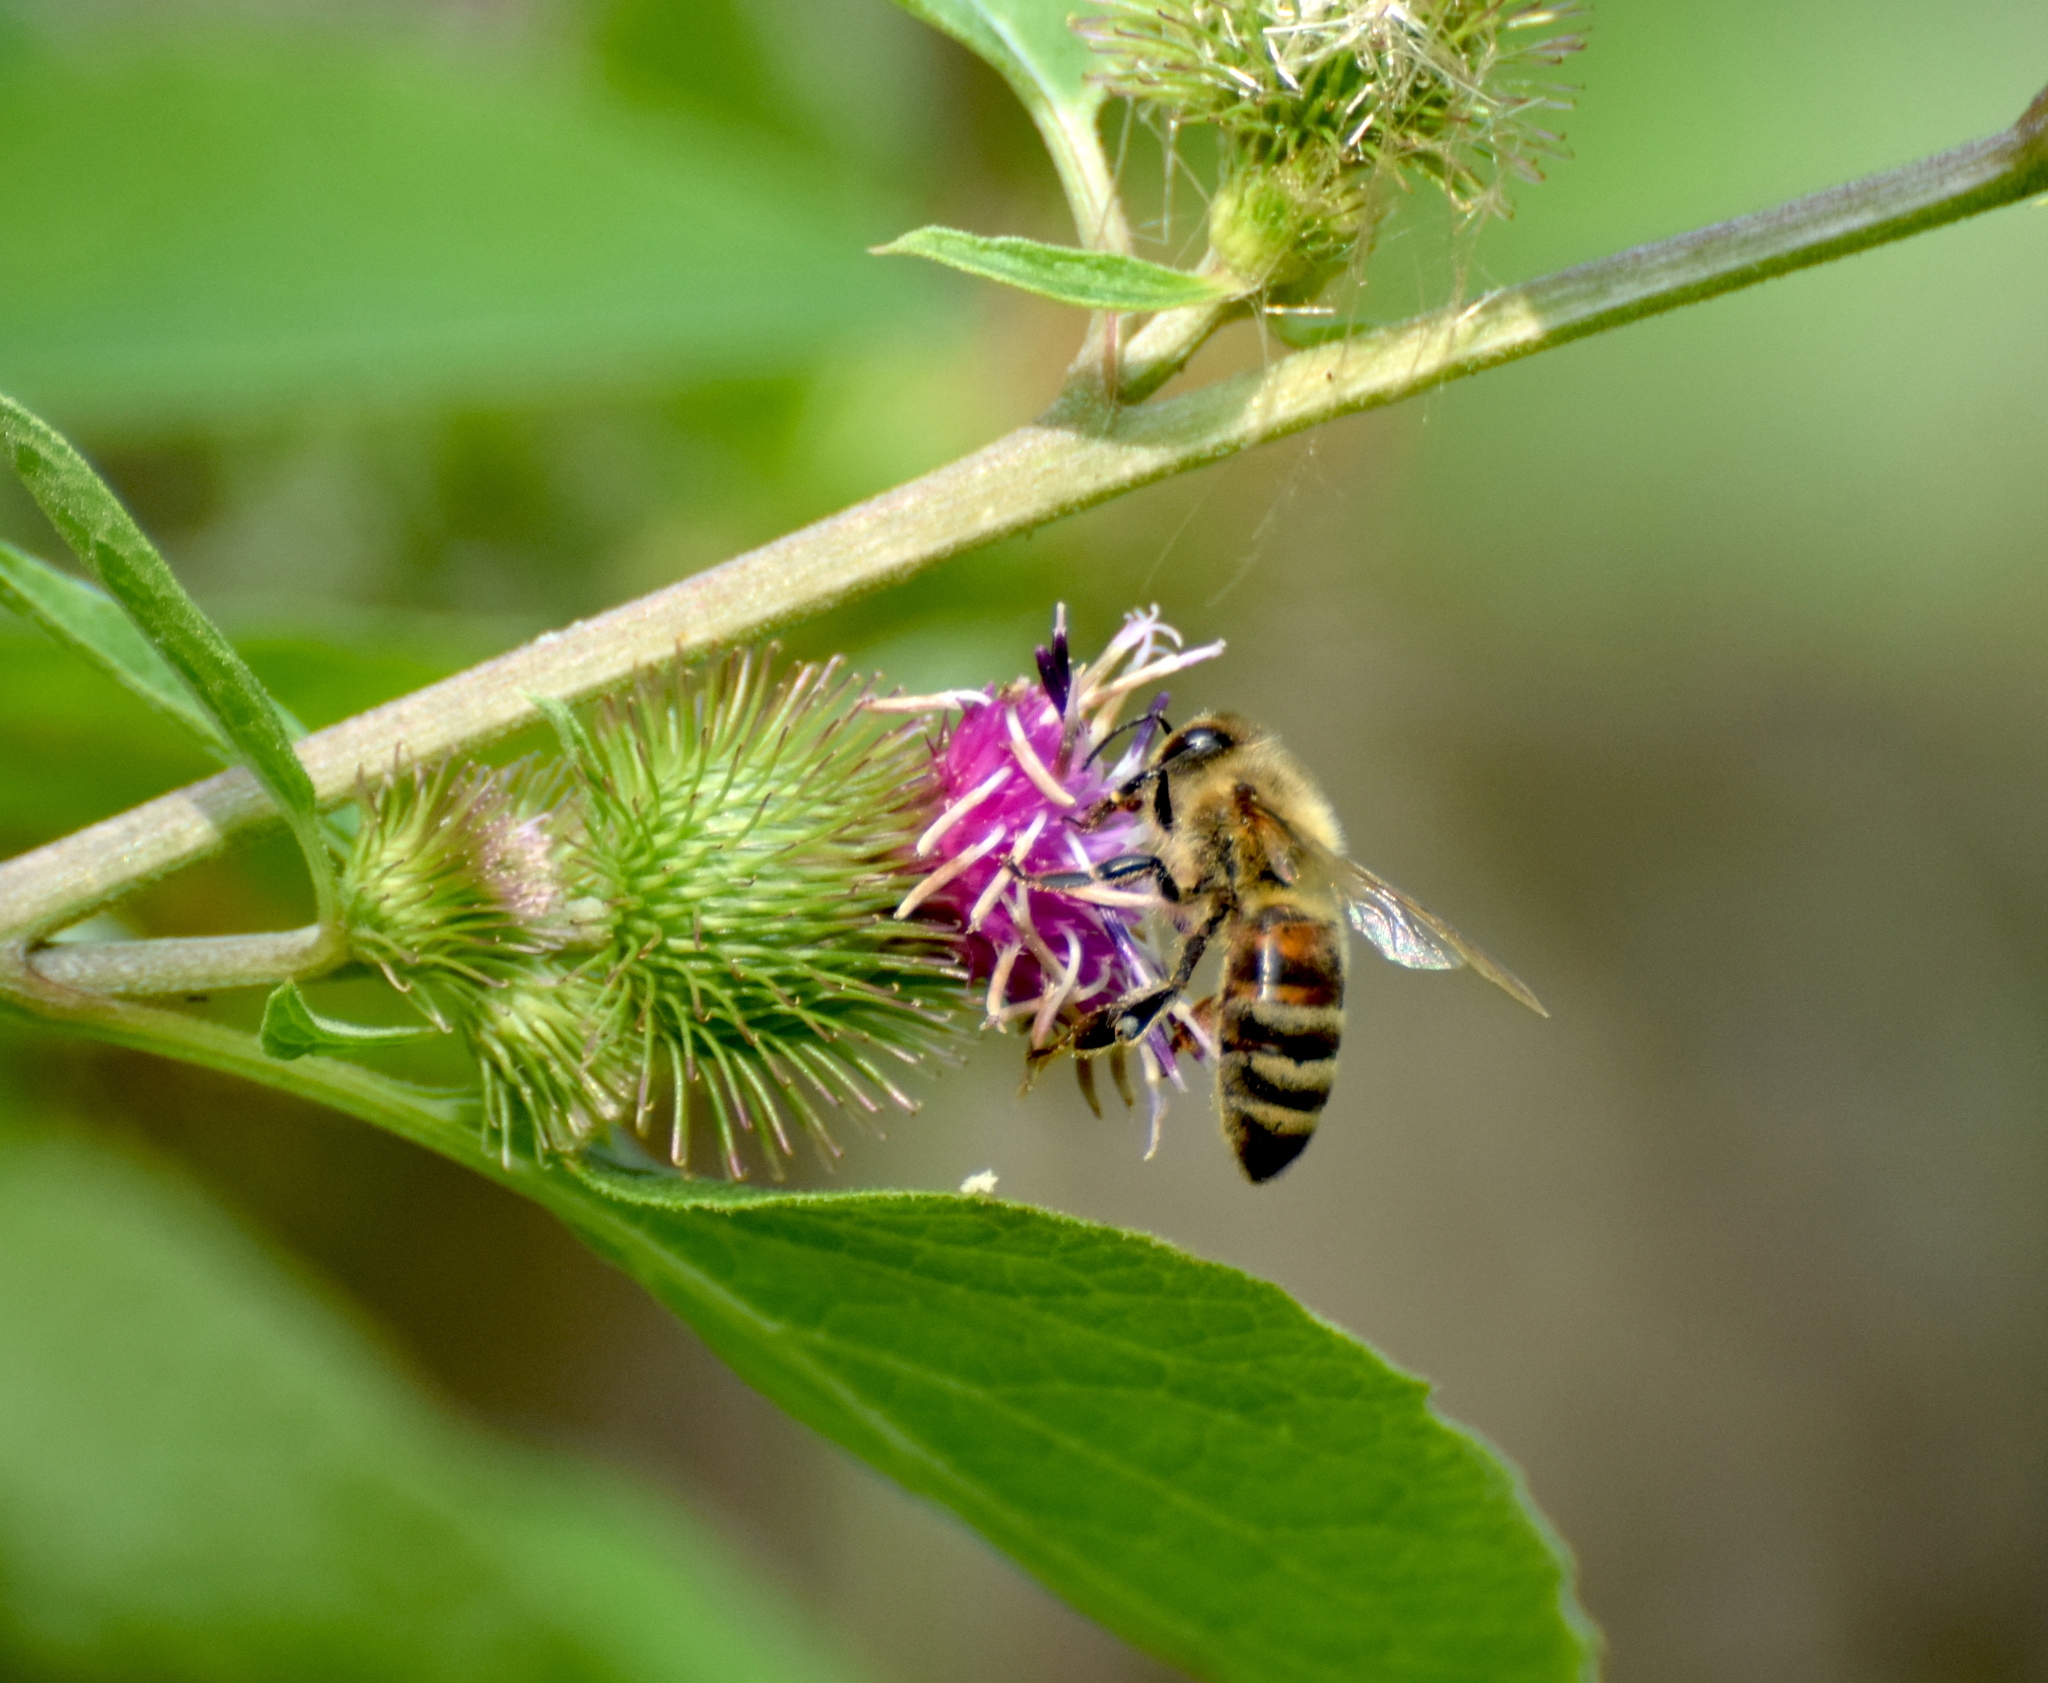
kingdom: Animalia
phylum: Arthropoda
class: Insecta
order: Hymenoptera
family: Apidae
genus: Apis
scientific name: Apis mellifera
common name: Honey bee
